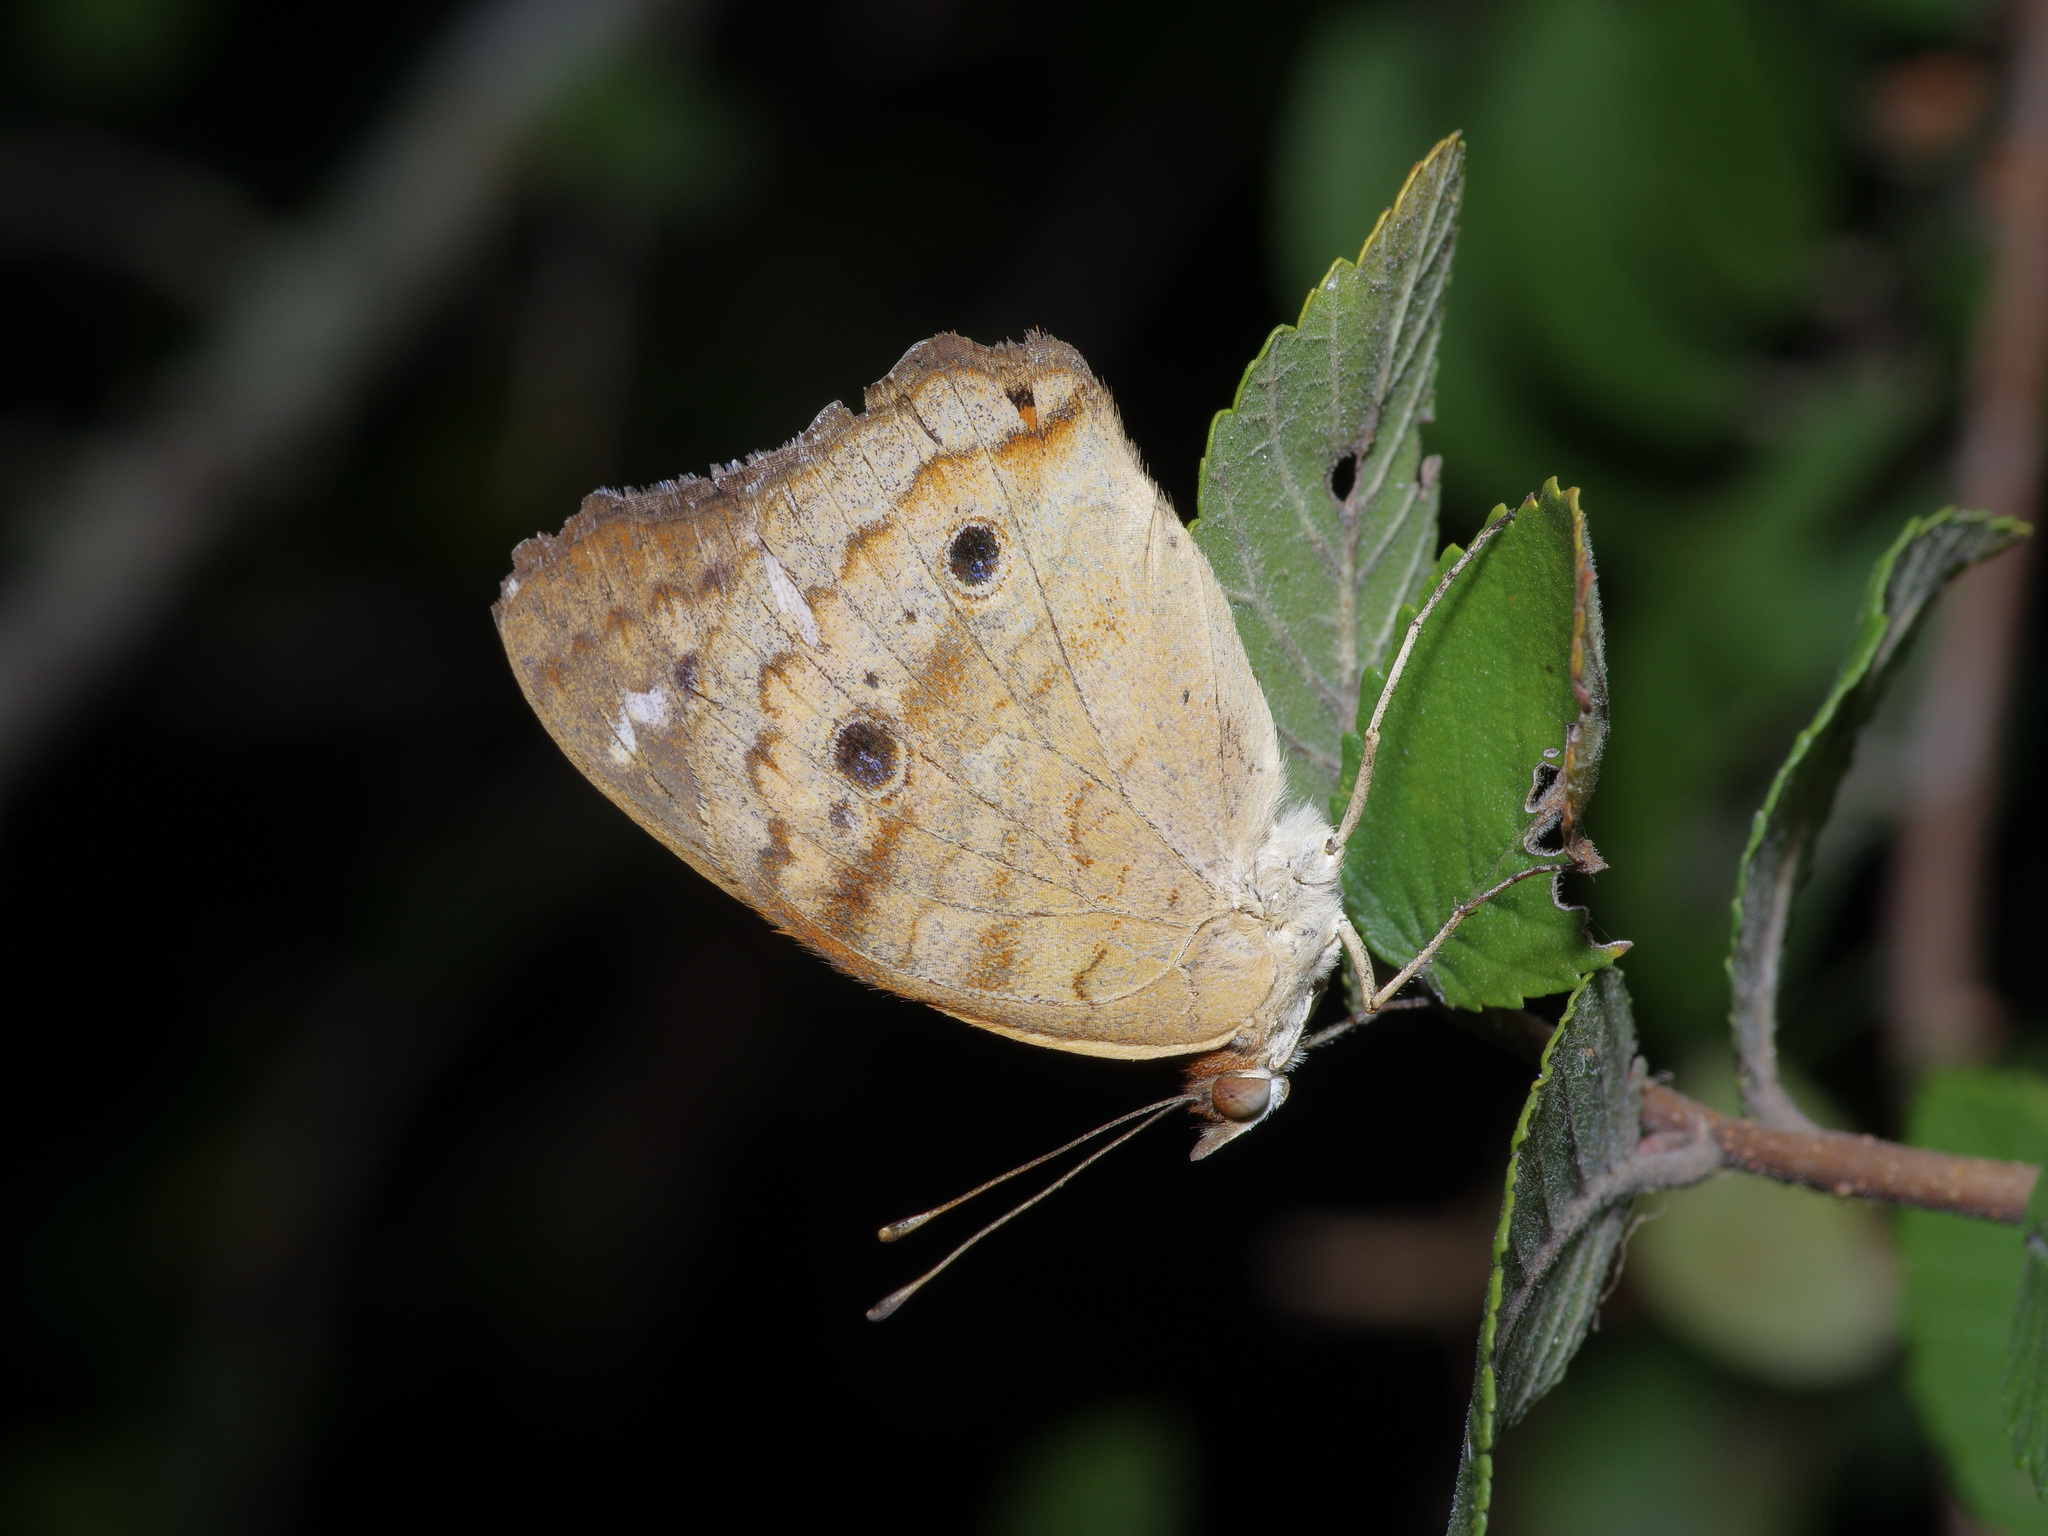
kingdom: Animalia
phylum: Arthropoda
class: Insecta
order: Lepidoptera
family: Nymphalidae
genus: Junonia
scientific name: Junonia coenia
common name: Common buckeye
